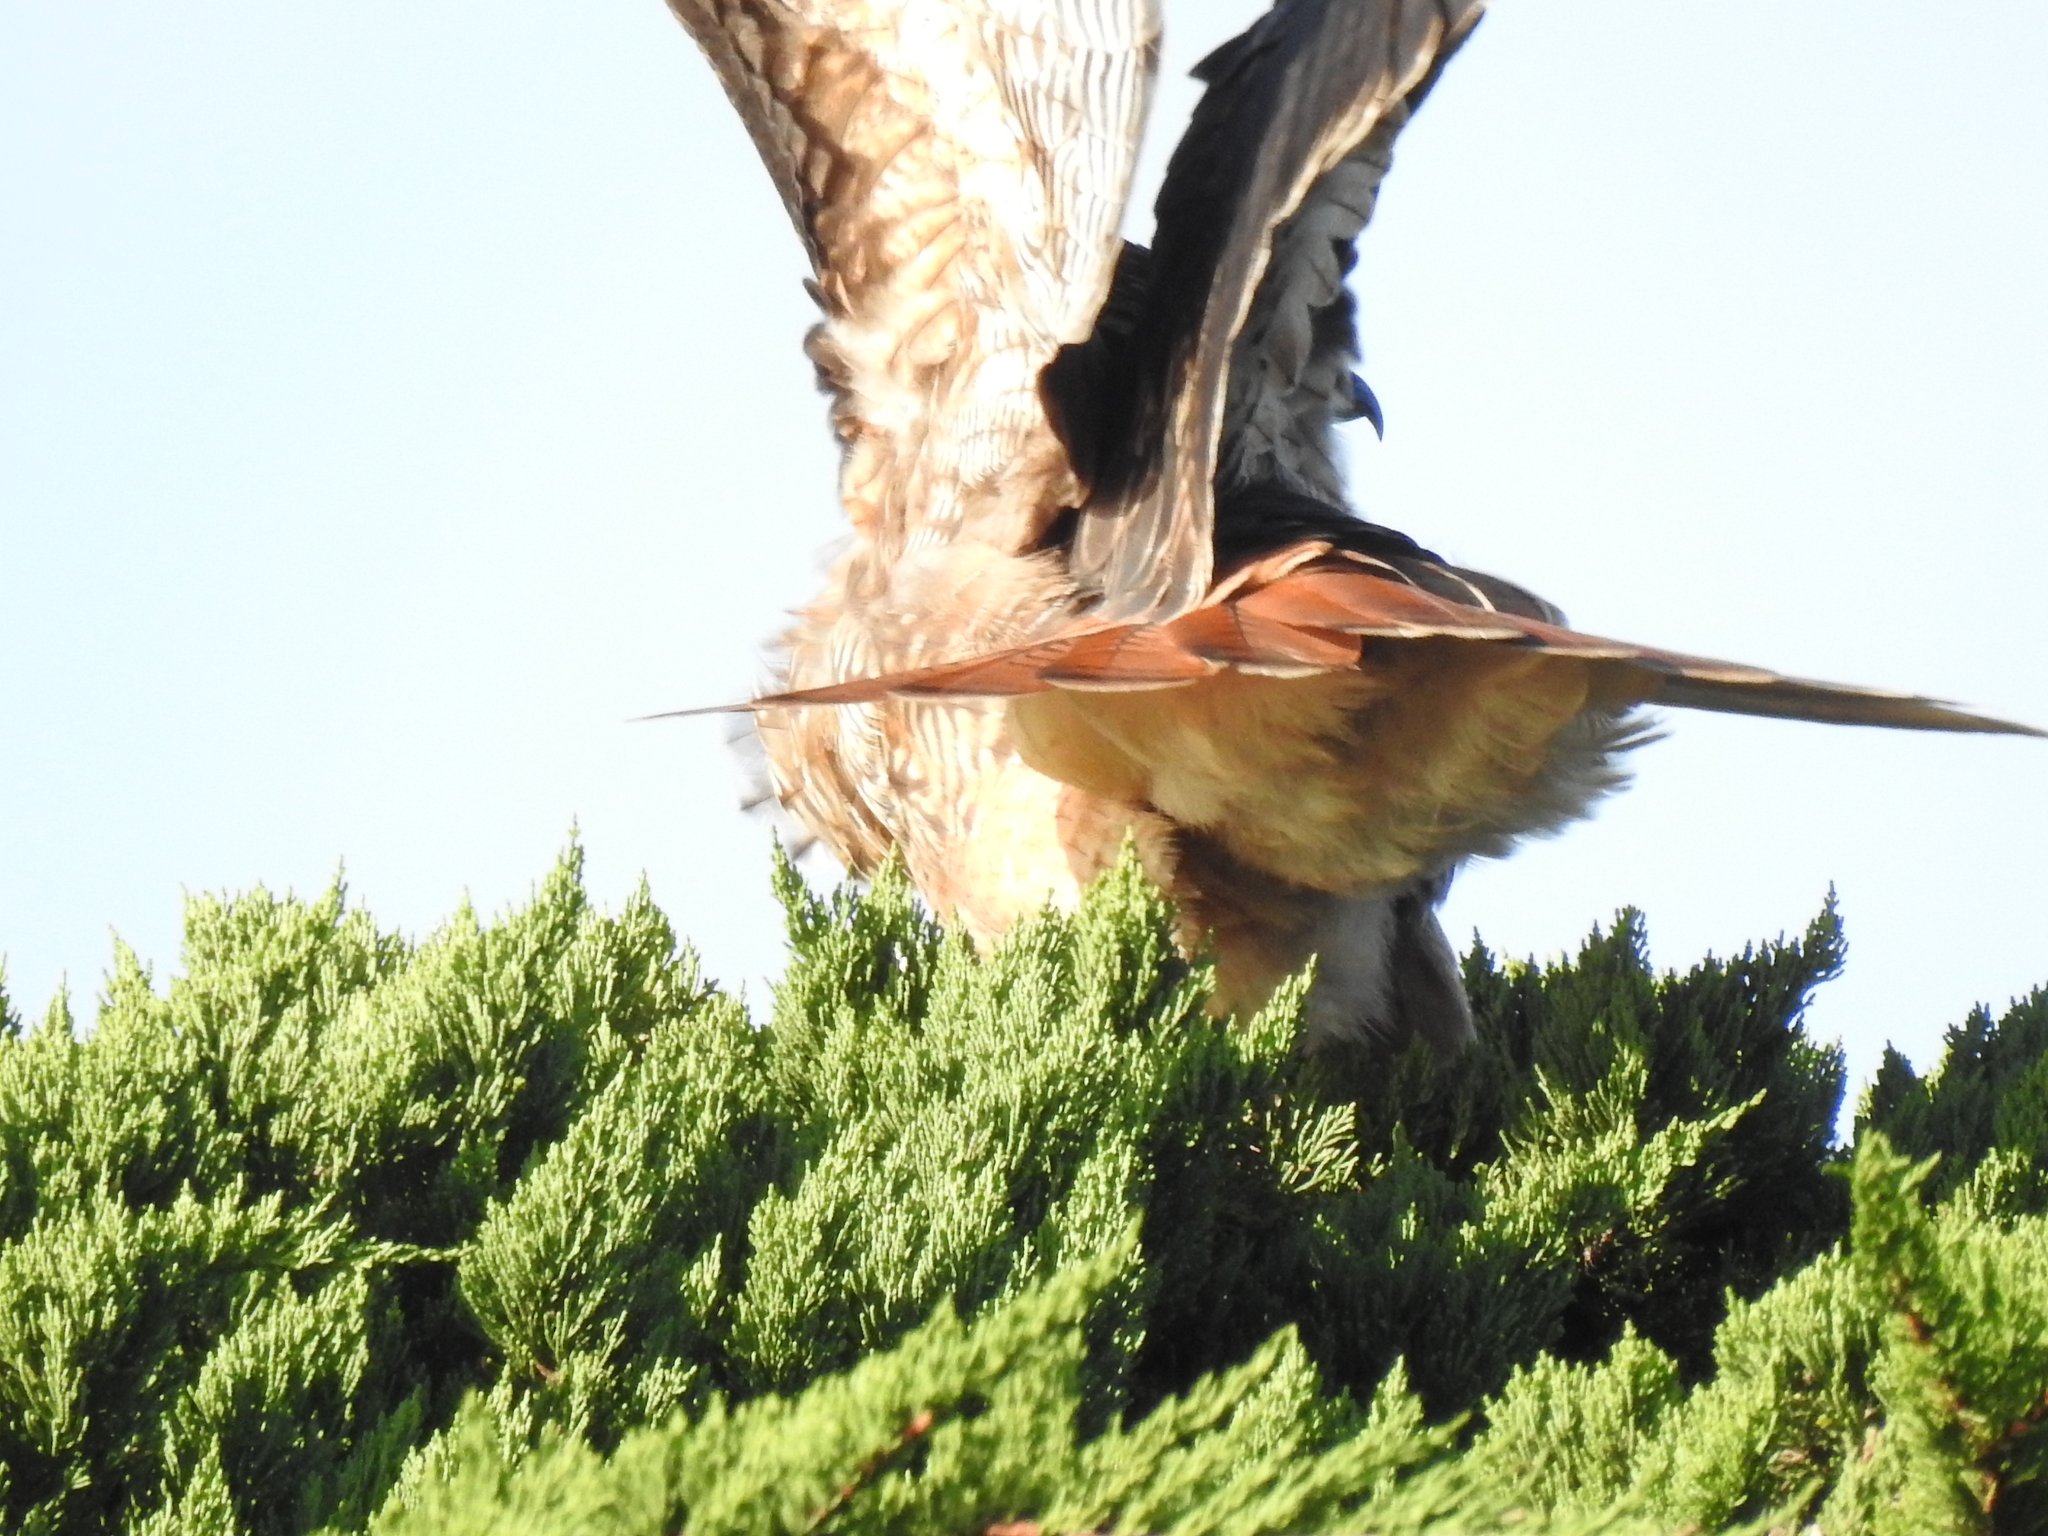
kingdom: Animalia
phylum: Chordata
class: Aves
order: Accipitriformes
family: Accipitridae
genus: Buteo
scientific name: Buteo jamaicensis
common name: Red-tailed hawk
